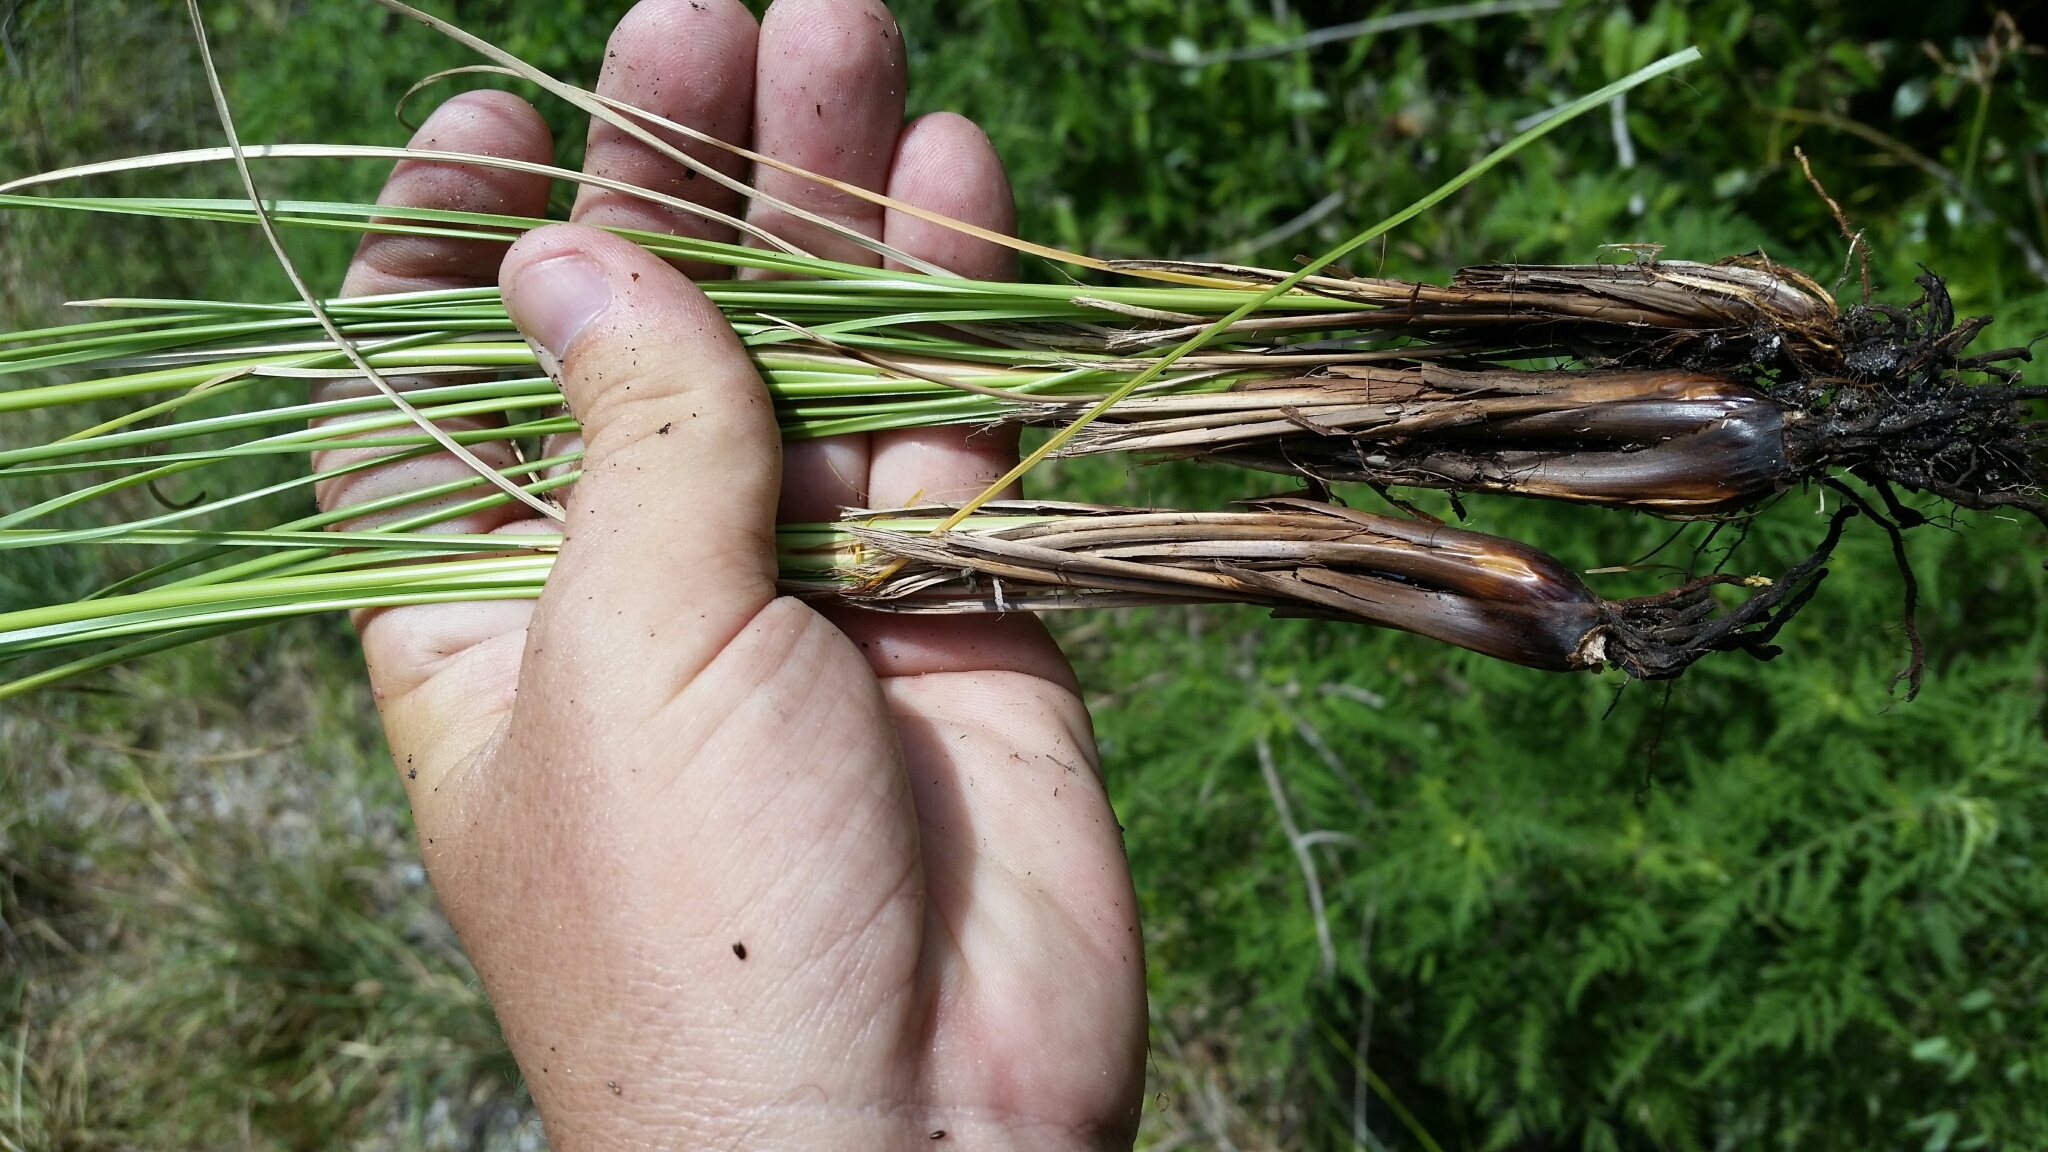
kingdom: Plantae
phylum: Tracheophyta
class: Liliopsida
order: Poales
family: Cyperaceae
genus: Fimbristylis
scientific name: Fimbristylis spadicea
